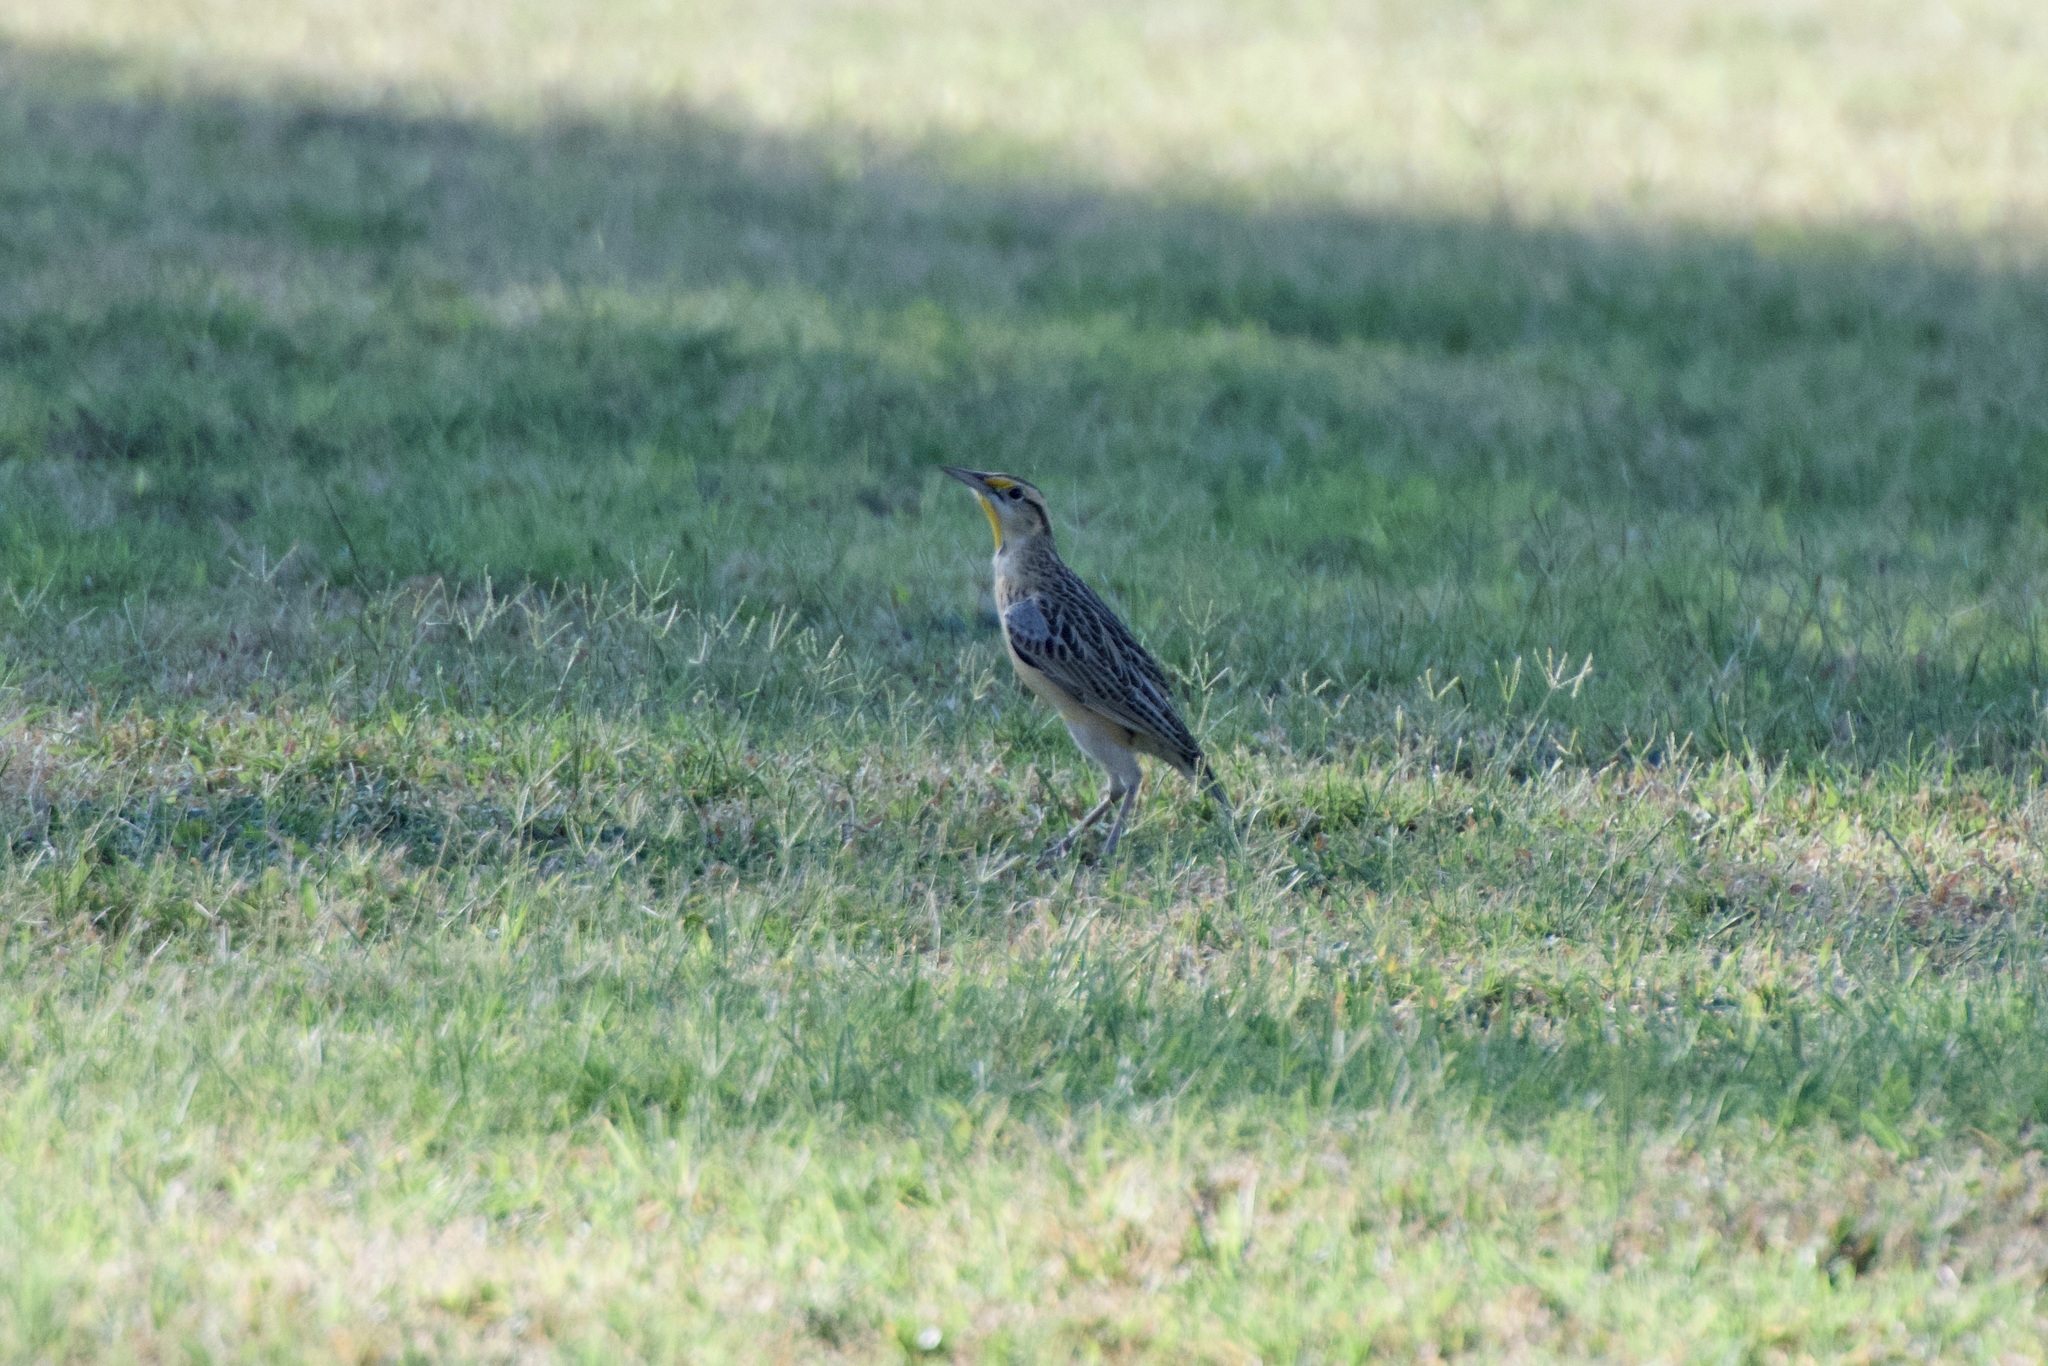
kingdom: Animalia
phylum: Chordata
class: Aves
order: Passeriformes
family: Icteridae
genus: Sturnella
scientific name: Sturnella lilianae
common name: Lilian's meadowlark
